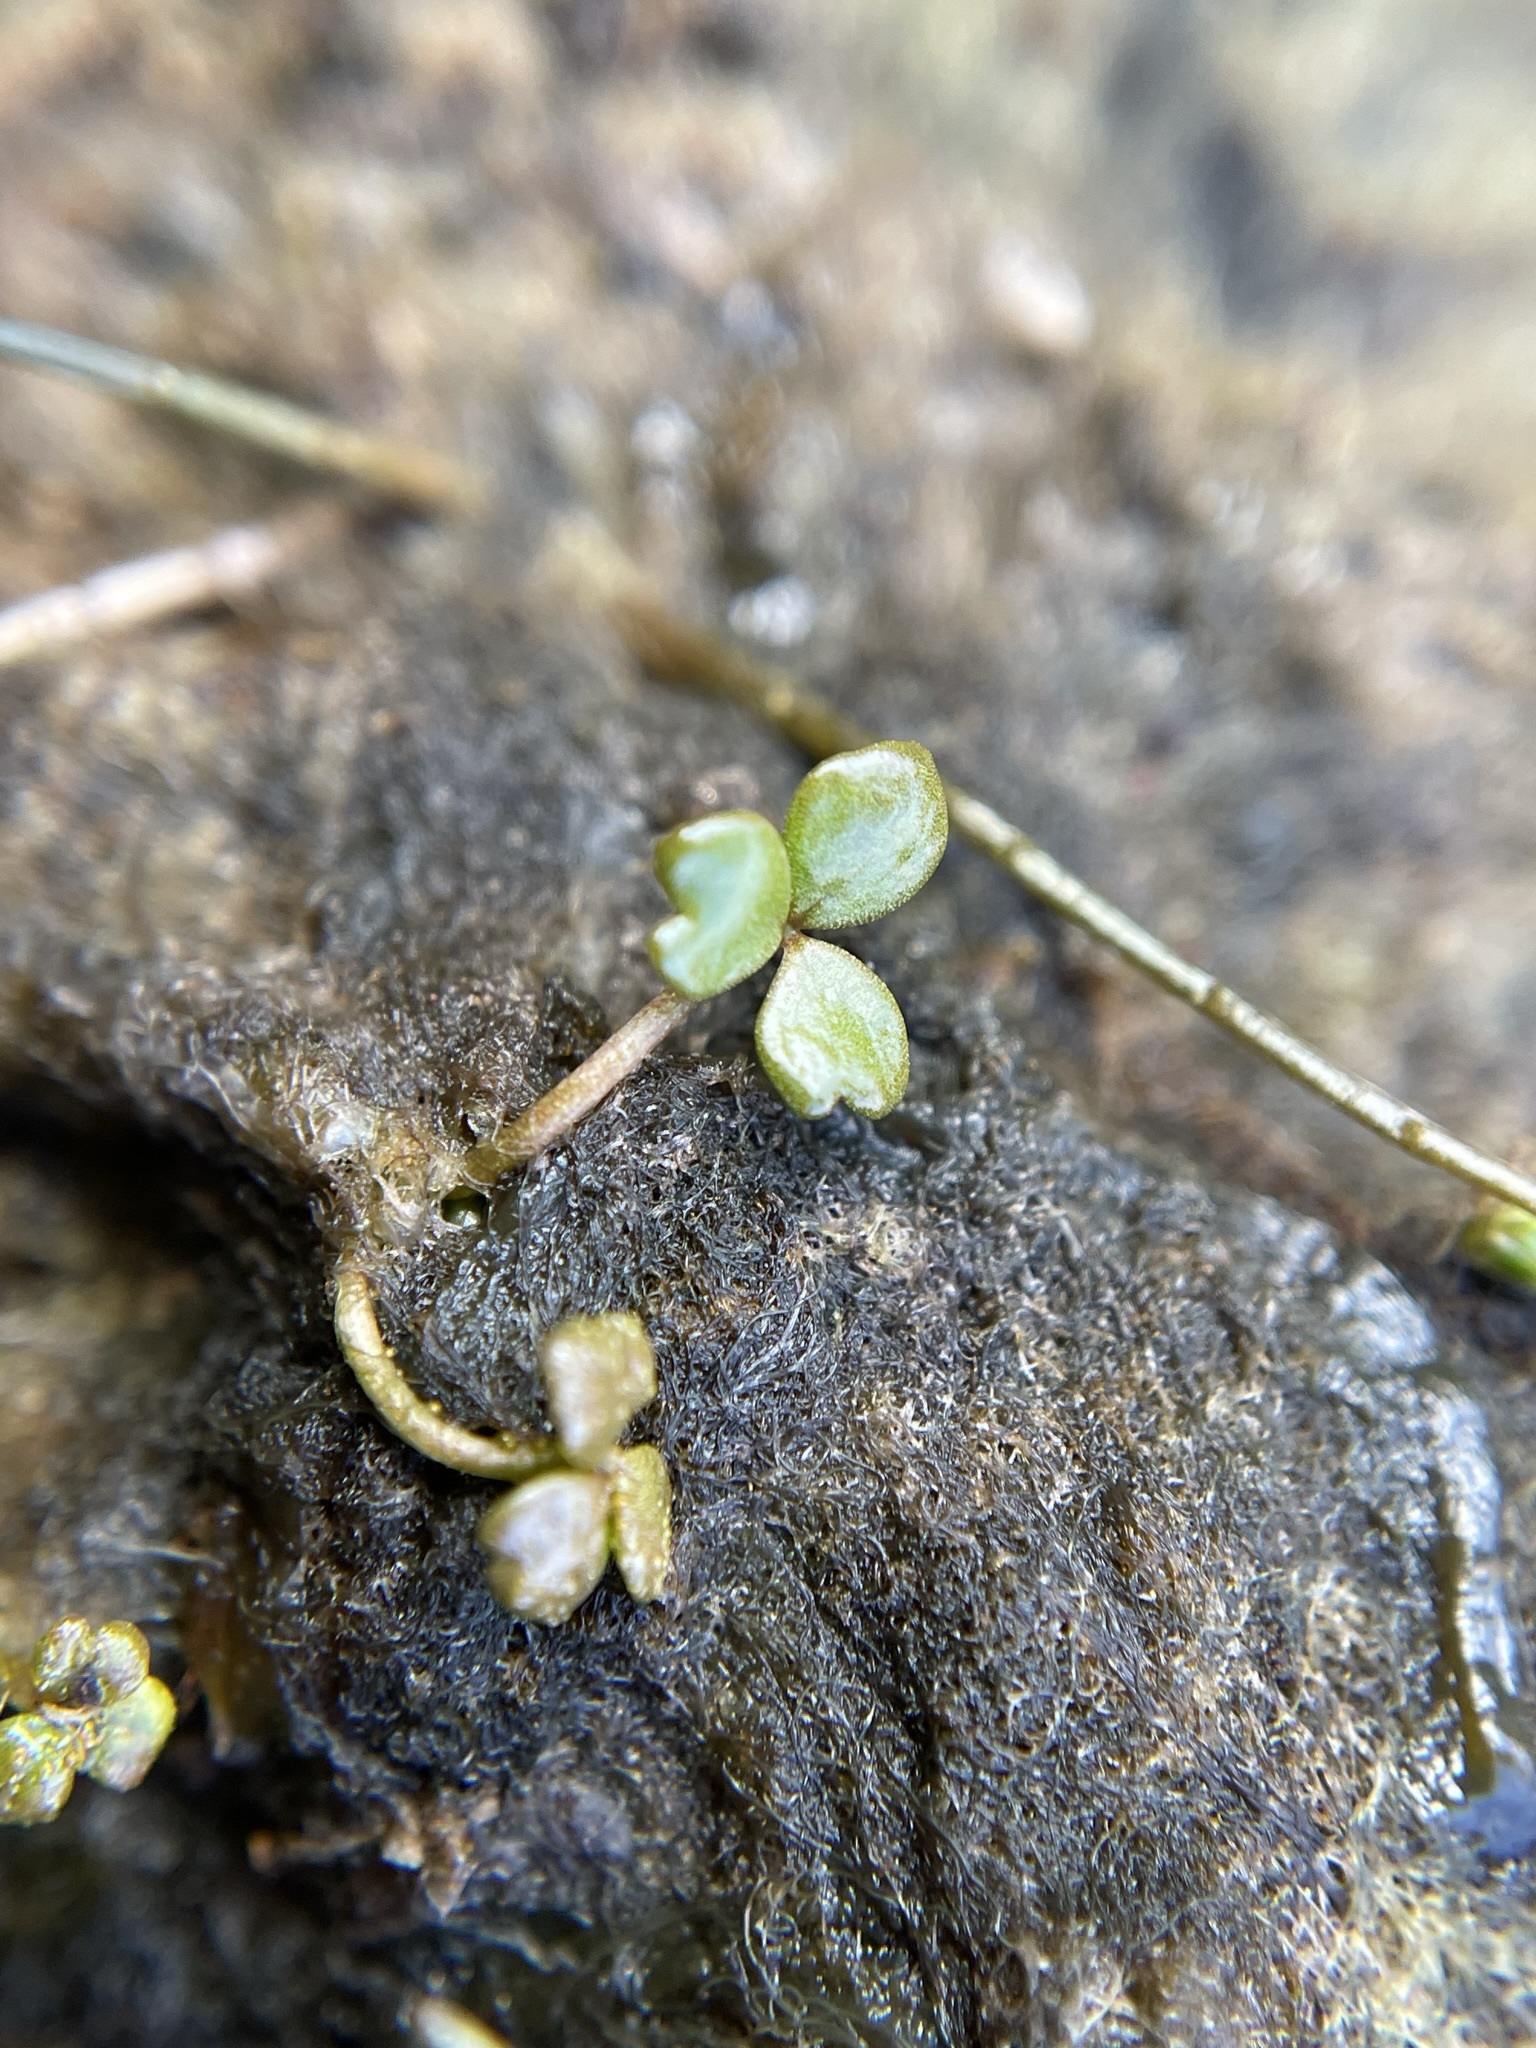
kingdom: Plantae
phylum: Tracheophyta
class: Magnoliopsida
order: Apiales
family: Araliaceae
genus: Hydrocotyle
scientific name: Hydrocotyle sulcata
